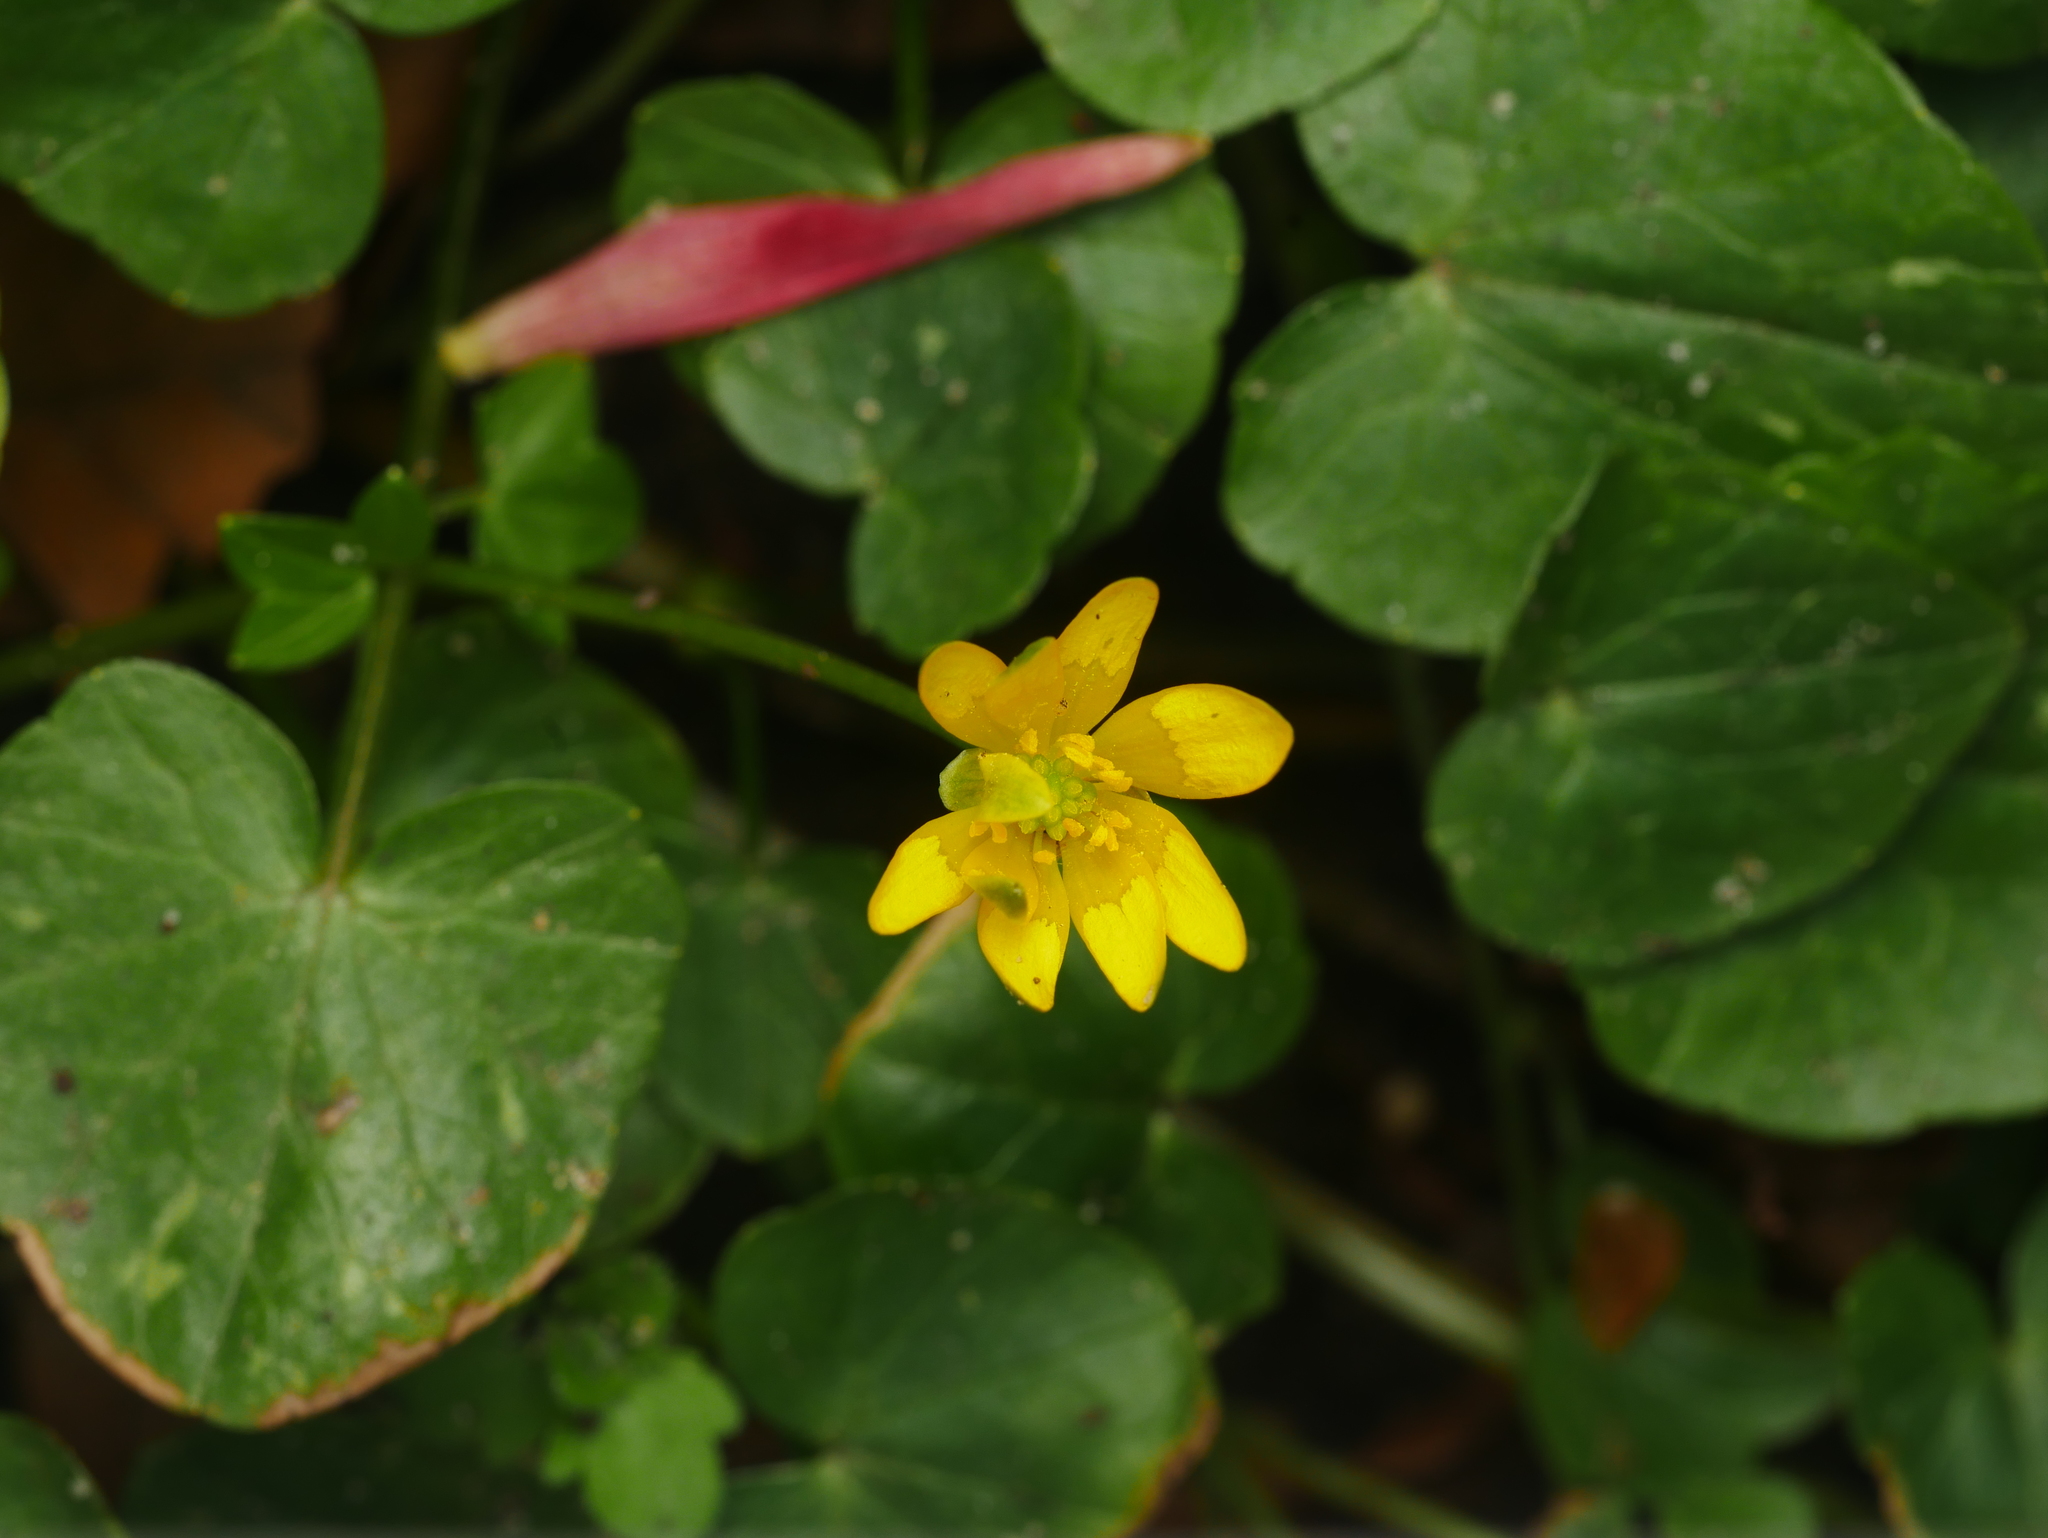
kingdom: Plantae
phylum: Tracheophyta
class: Magnoliopsida
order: Ranunculales
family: Ranunculaceae
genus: Ficaria
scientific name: Ficaria verna
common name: Lesser celandine
